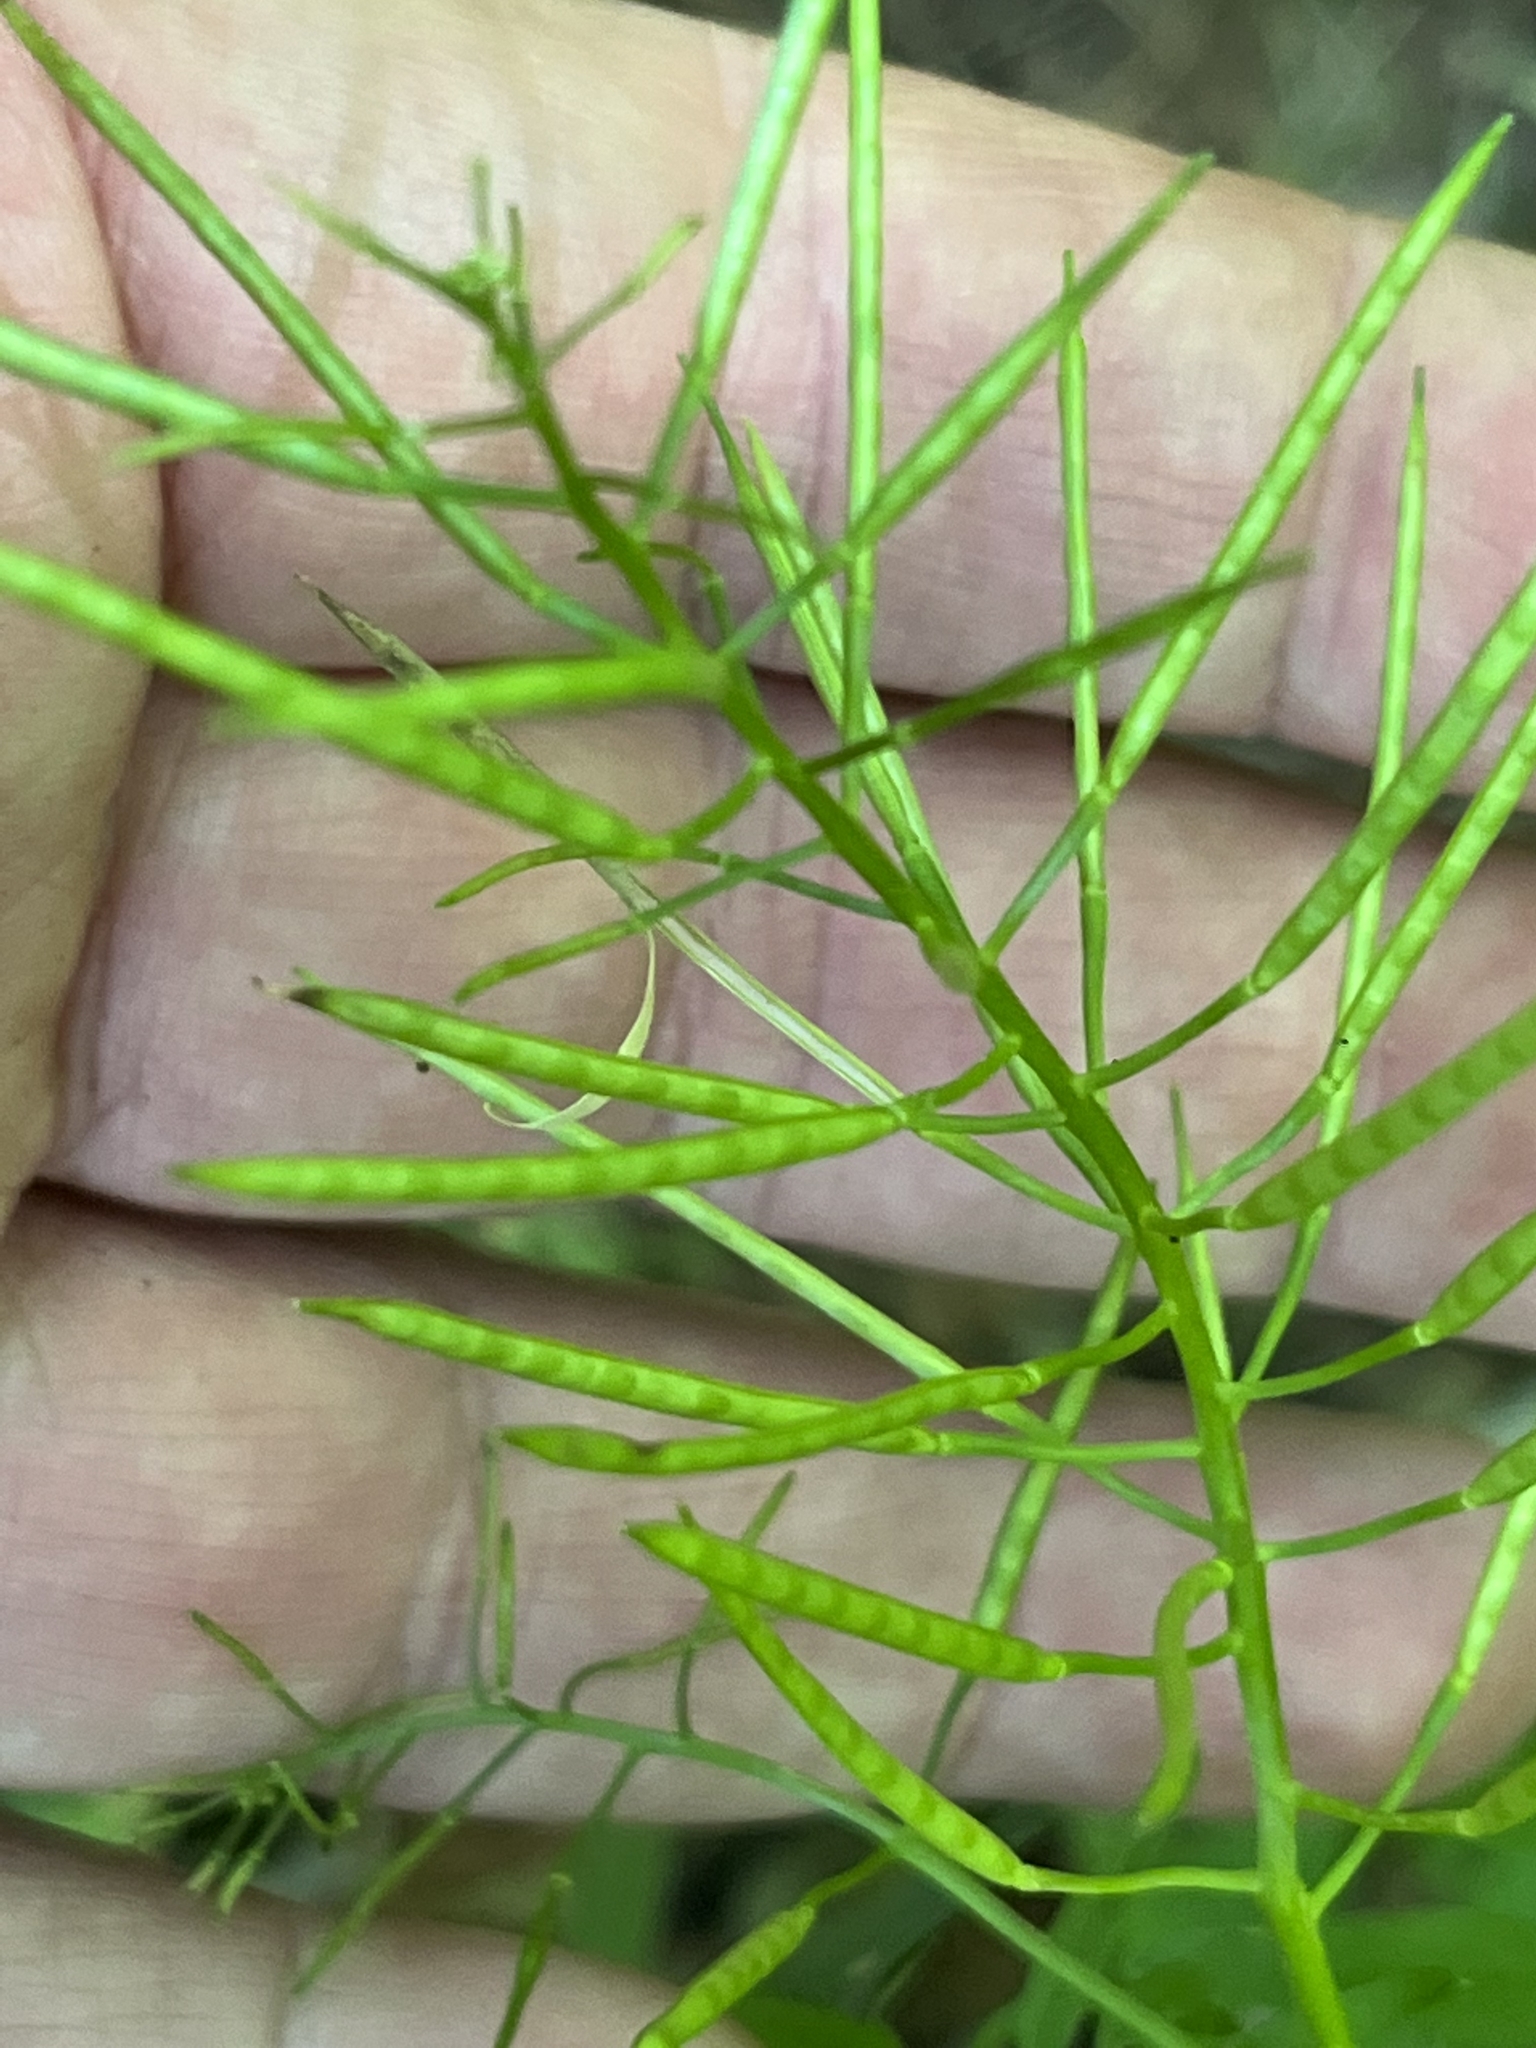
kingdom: Plantae
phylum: Tracheophyta
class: Magnoliopsida
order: Brassicales
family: Brassicaceae
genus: Cardamine
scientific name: Cardamine impatiens
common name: Narrow-leaved bitter-cress
